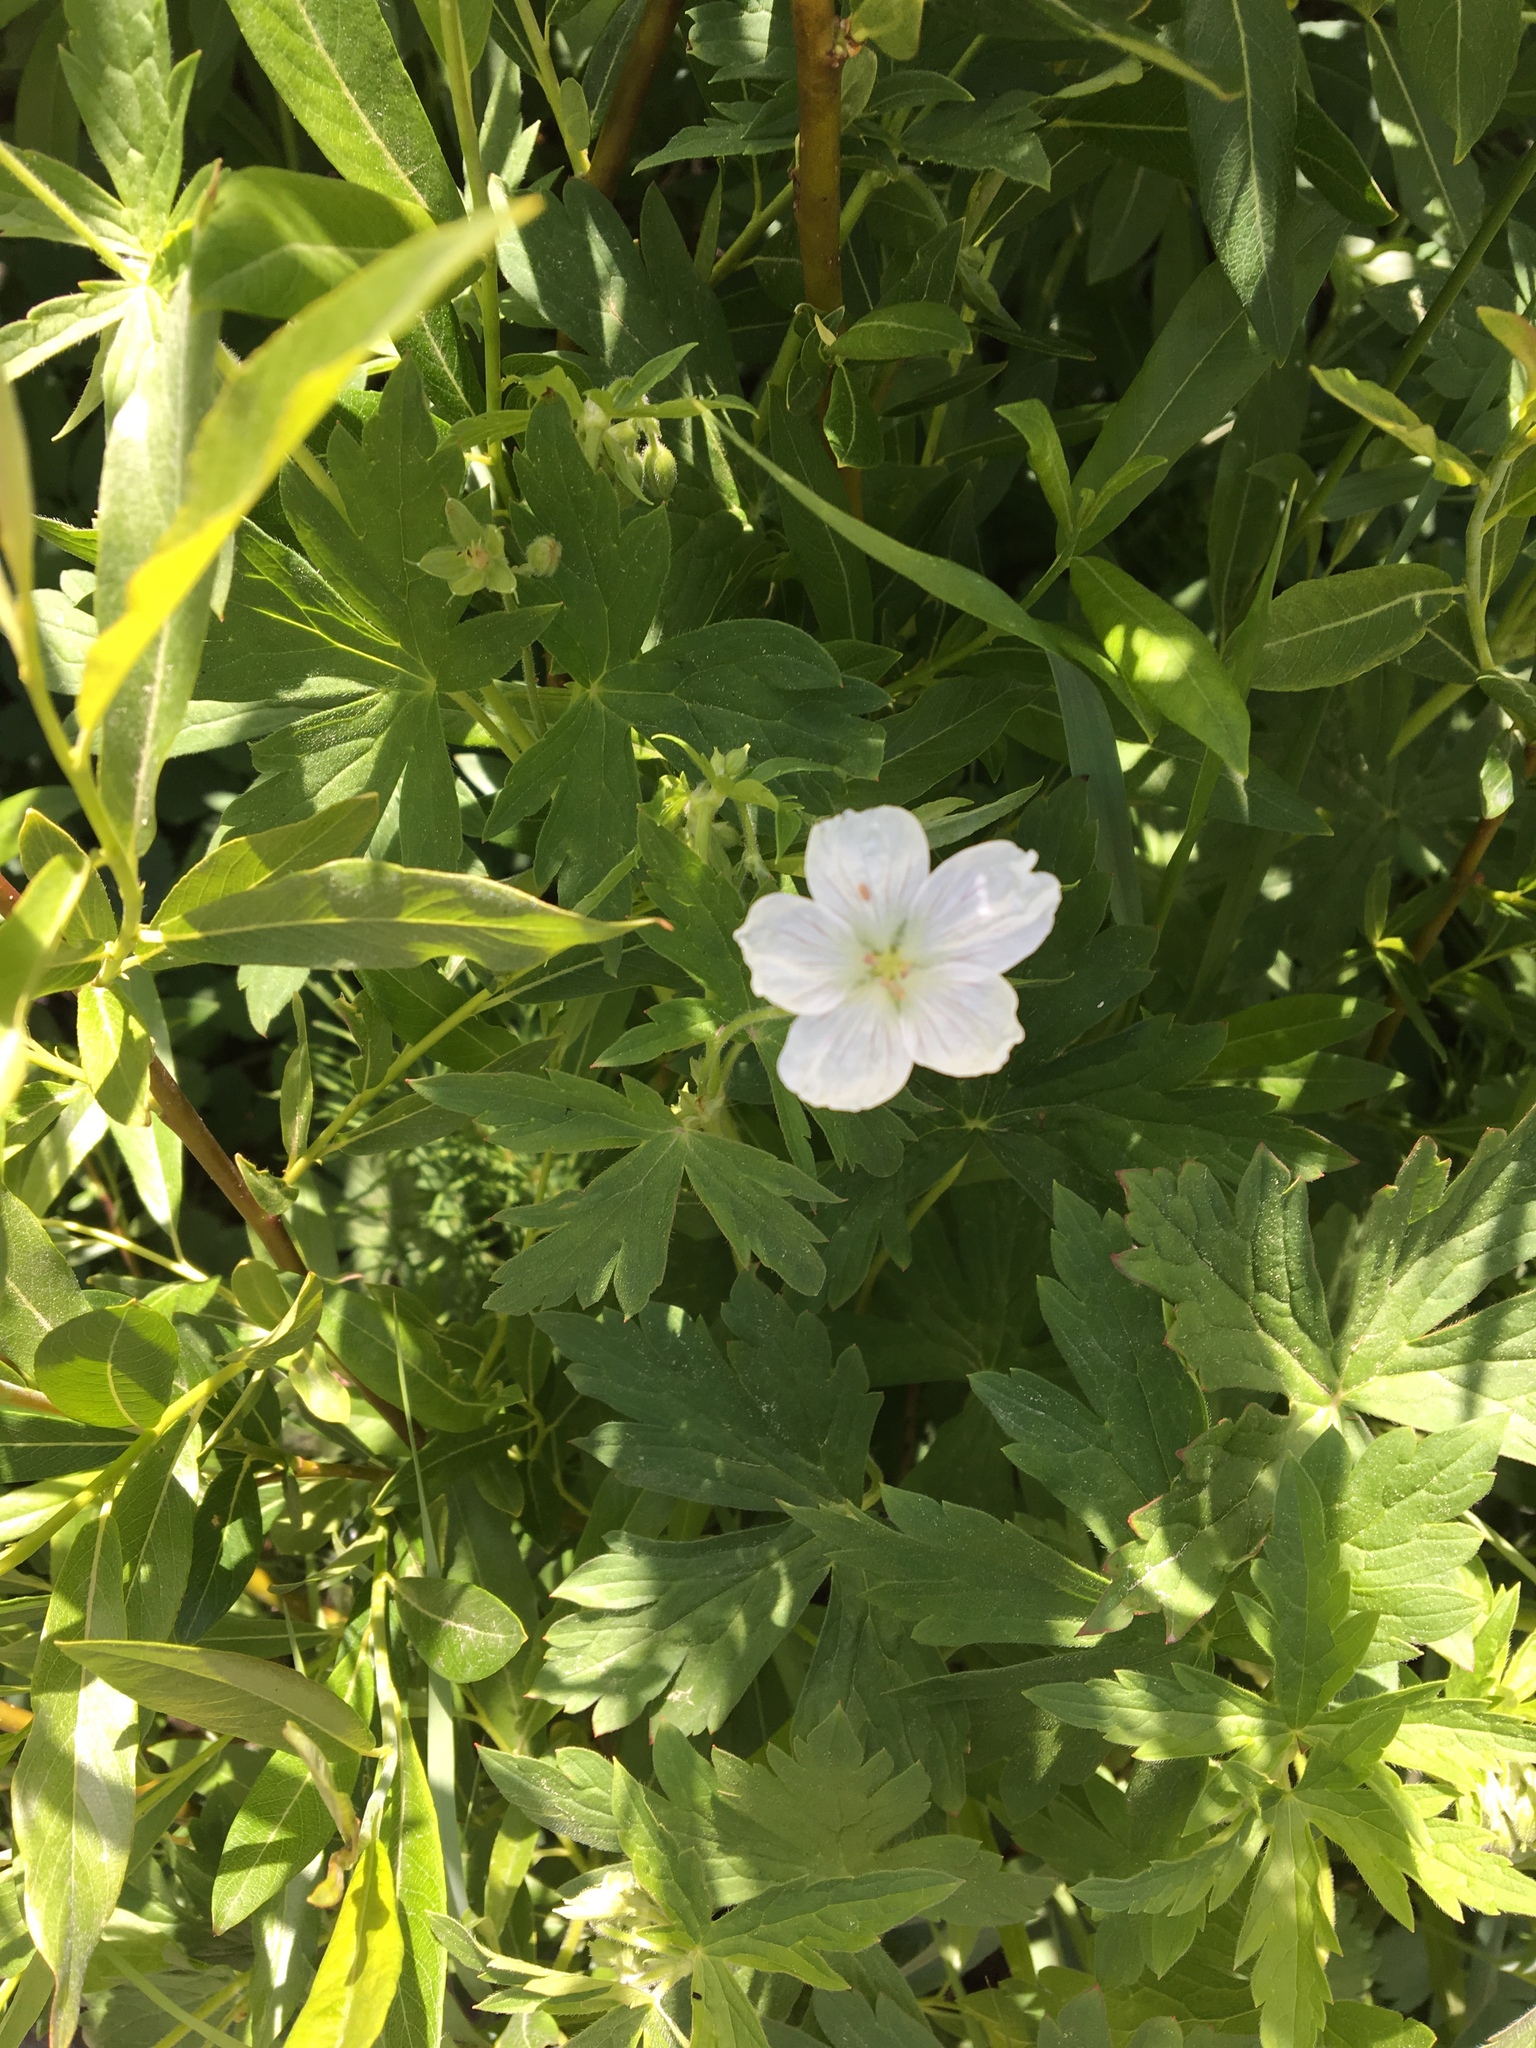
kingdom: Plantae
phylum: Tracheophyta
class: Magnoliopsida
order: Geraniales
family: Geraniaceae
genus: Geranium
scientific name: Geranium richardsonii
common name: Richardson's crane's-bill
